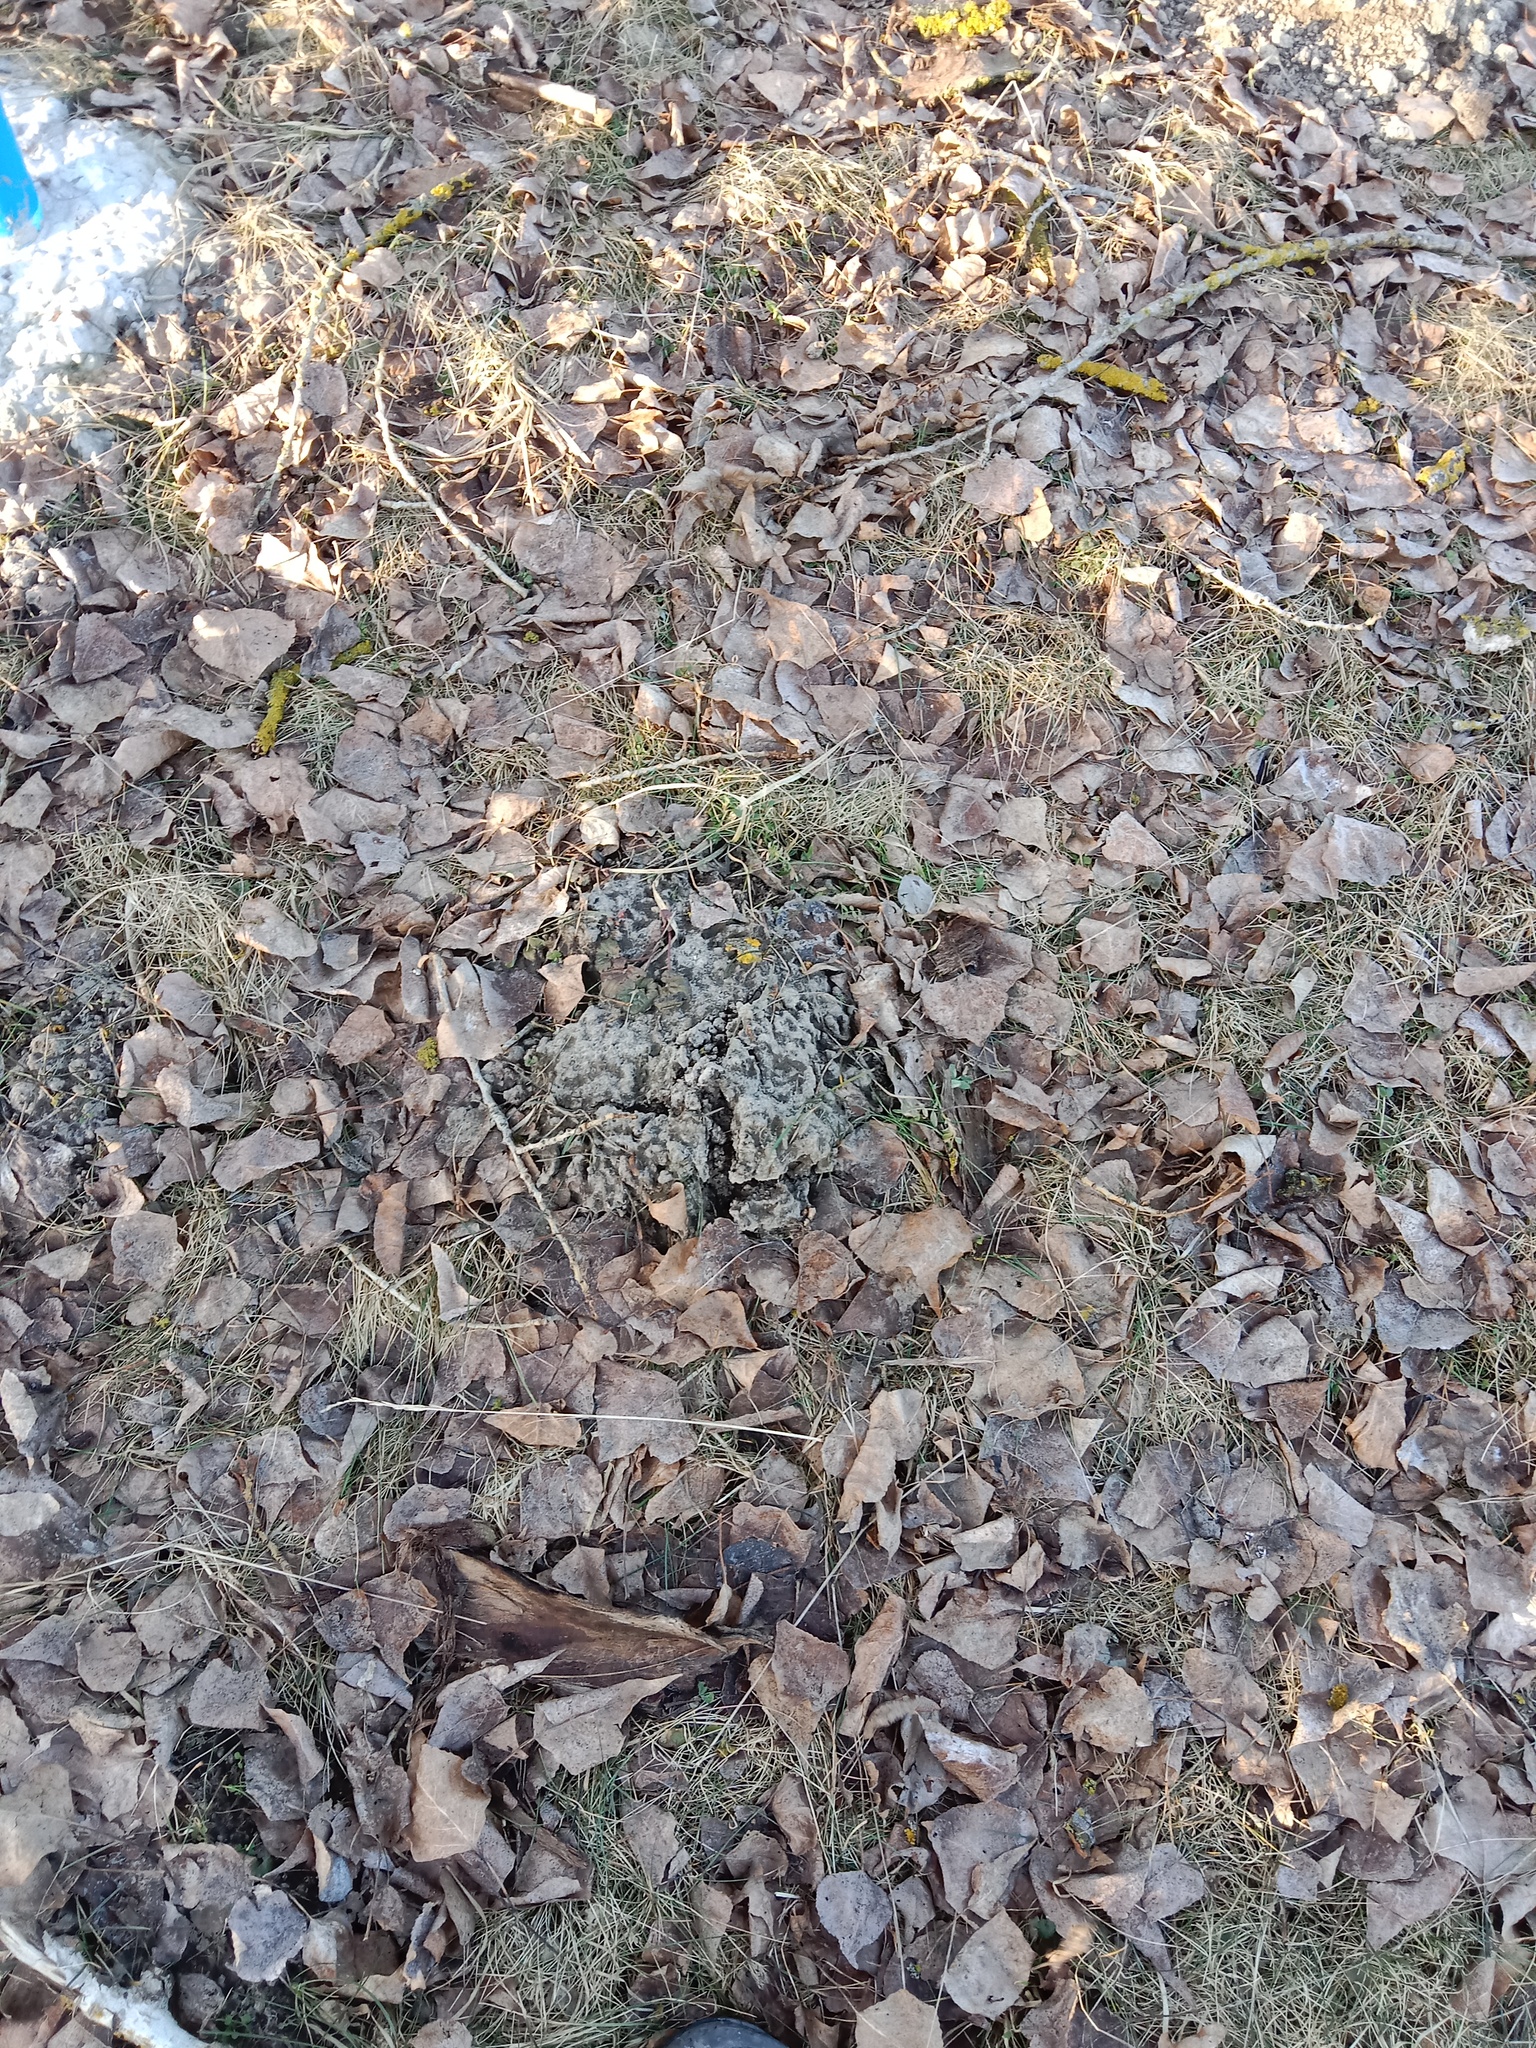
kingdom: Animalia
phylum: Chordata
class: Mammalia
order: Soricomorpha
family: Talpidae
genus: Talpa
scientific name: Talpa europaea
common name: European mole
